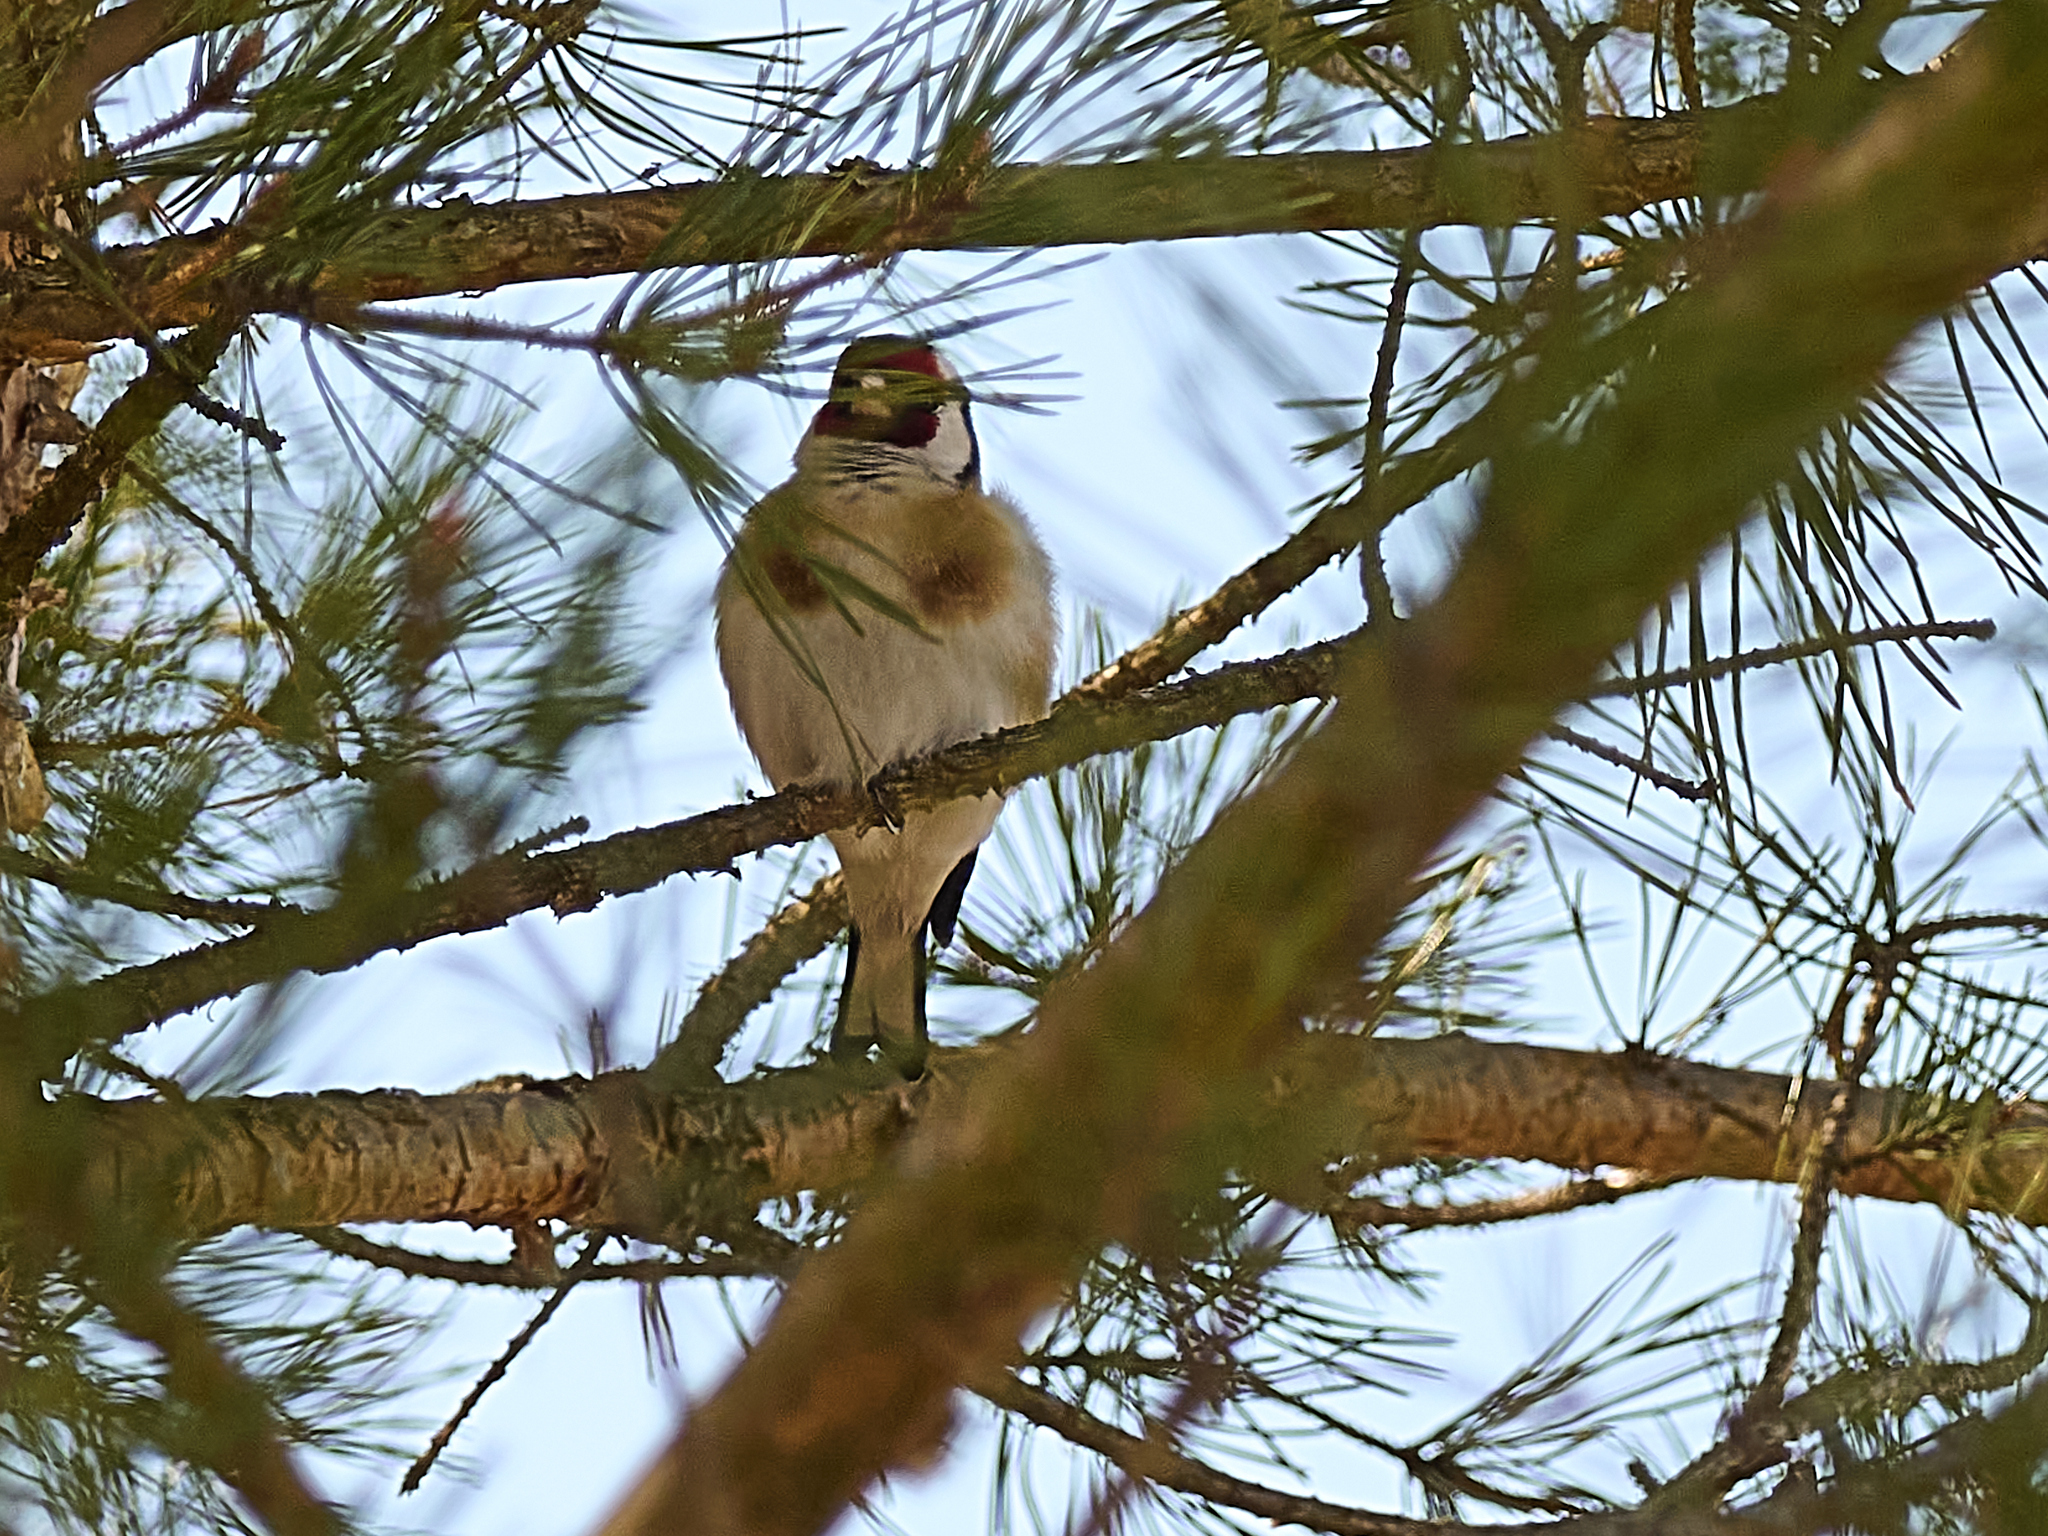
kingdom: Animalia
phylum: Chordata
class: Aves
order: Passeriformes
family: Fringillidae
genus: Carduelis
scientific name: Carduelis carduelis
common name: European goldfinch
